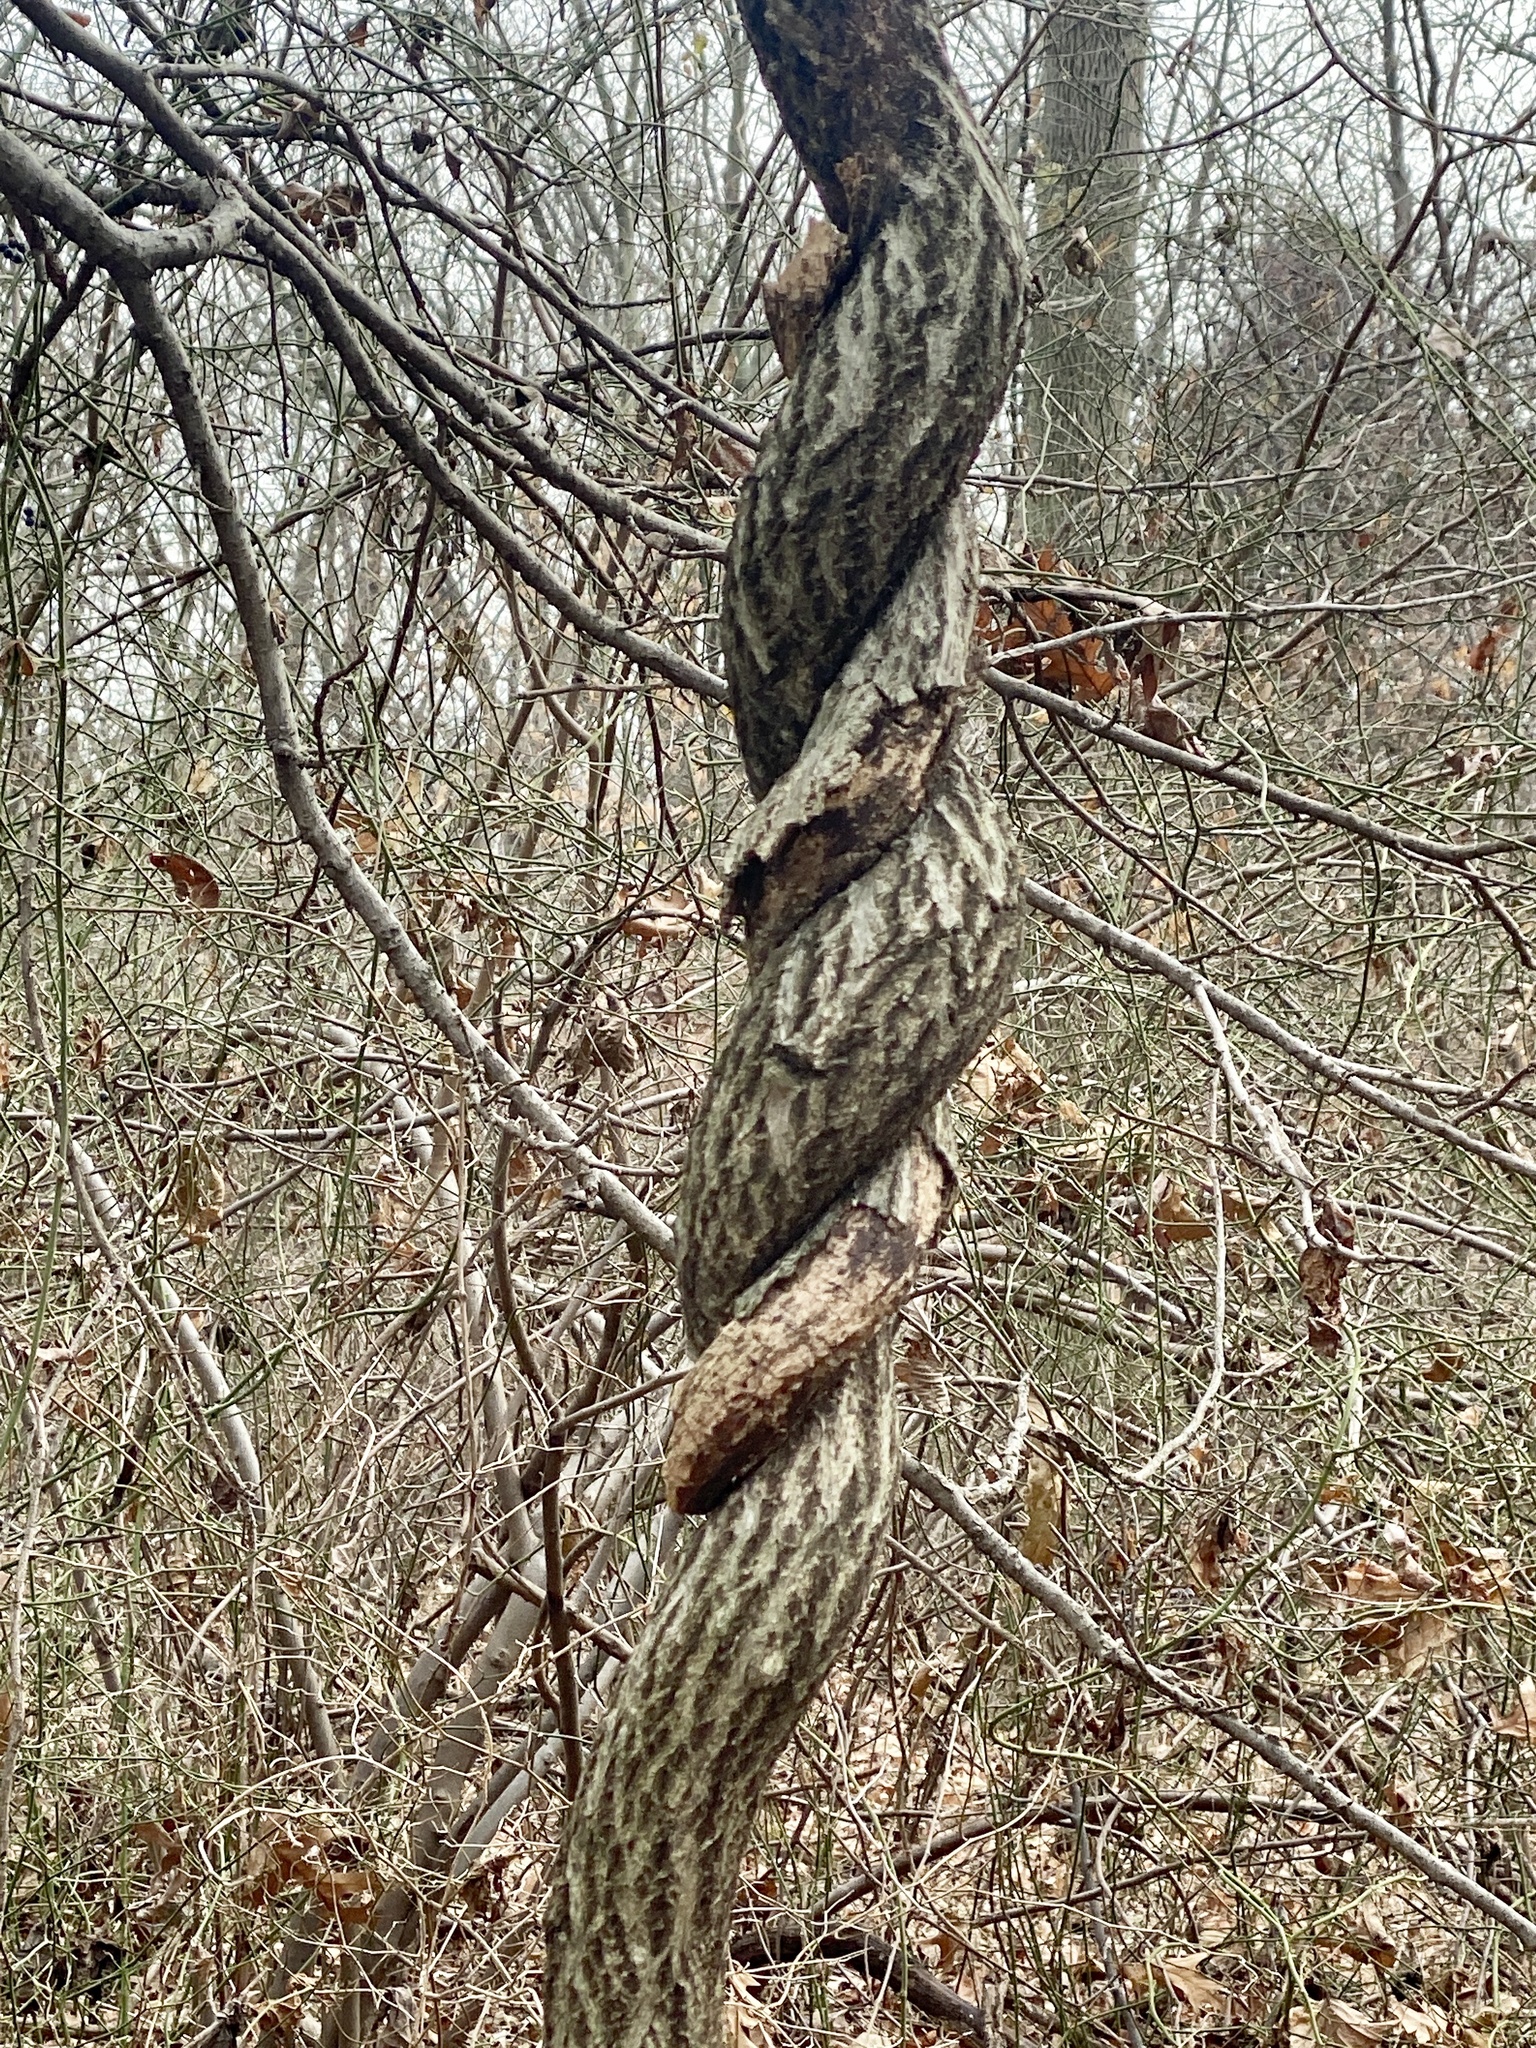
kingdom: Plantae
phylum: Tracheophyta
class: Magnoliopsida
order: Celastrales
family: Celastraceae
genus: Celastrus
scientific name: Celastrus orbiculatus
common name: Oriental bittersweet
